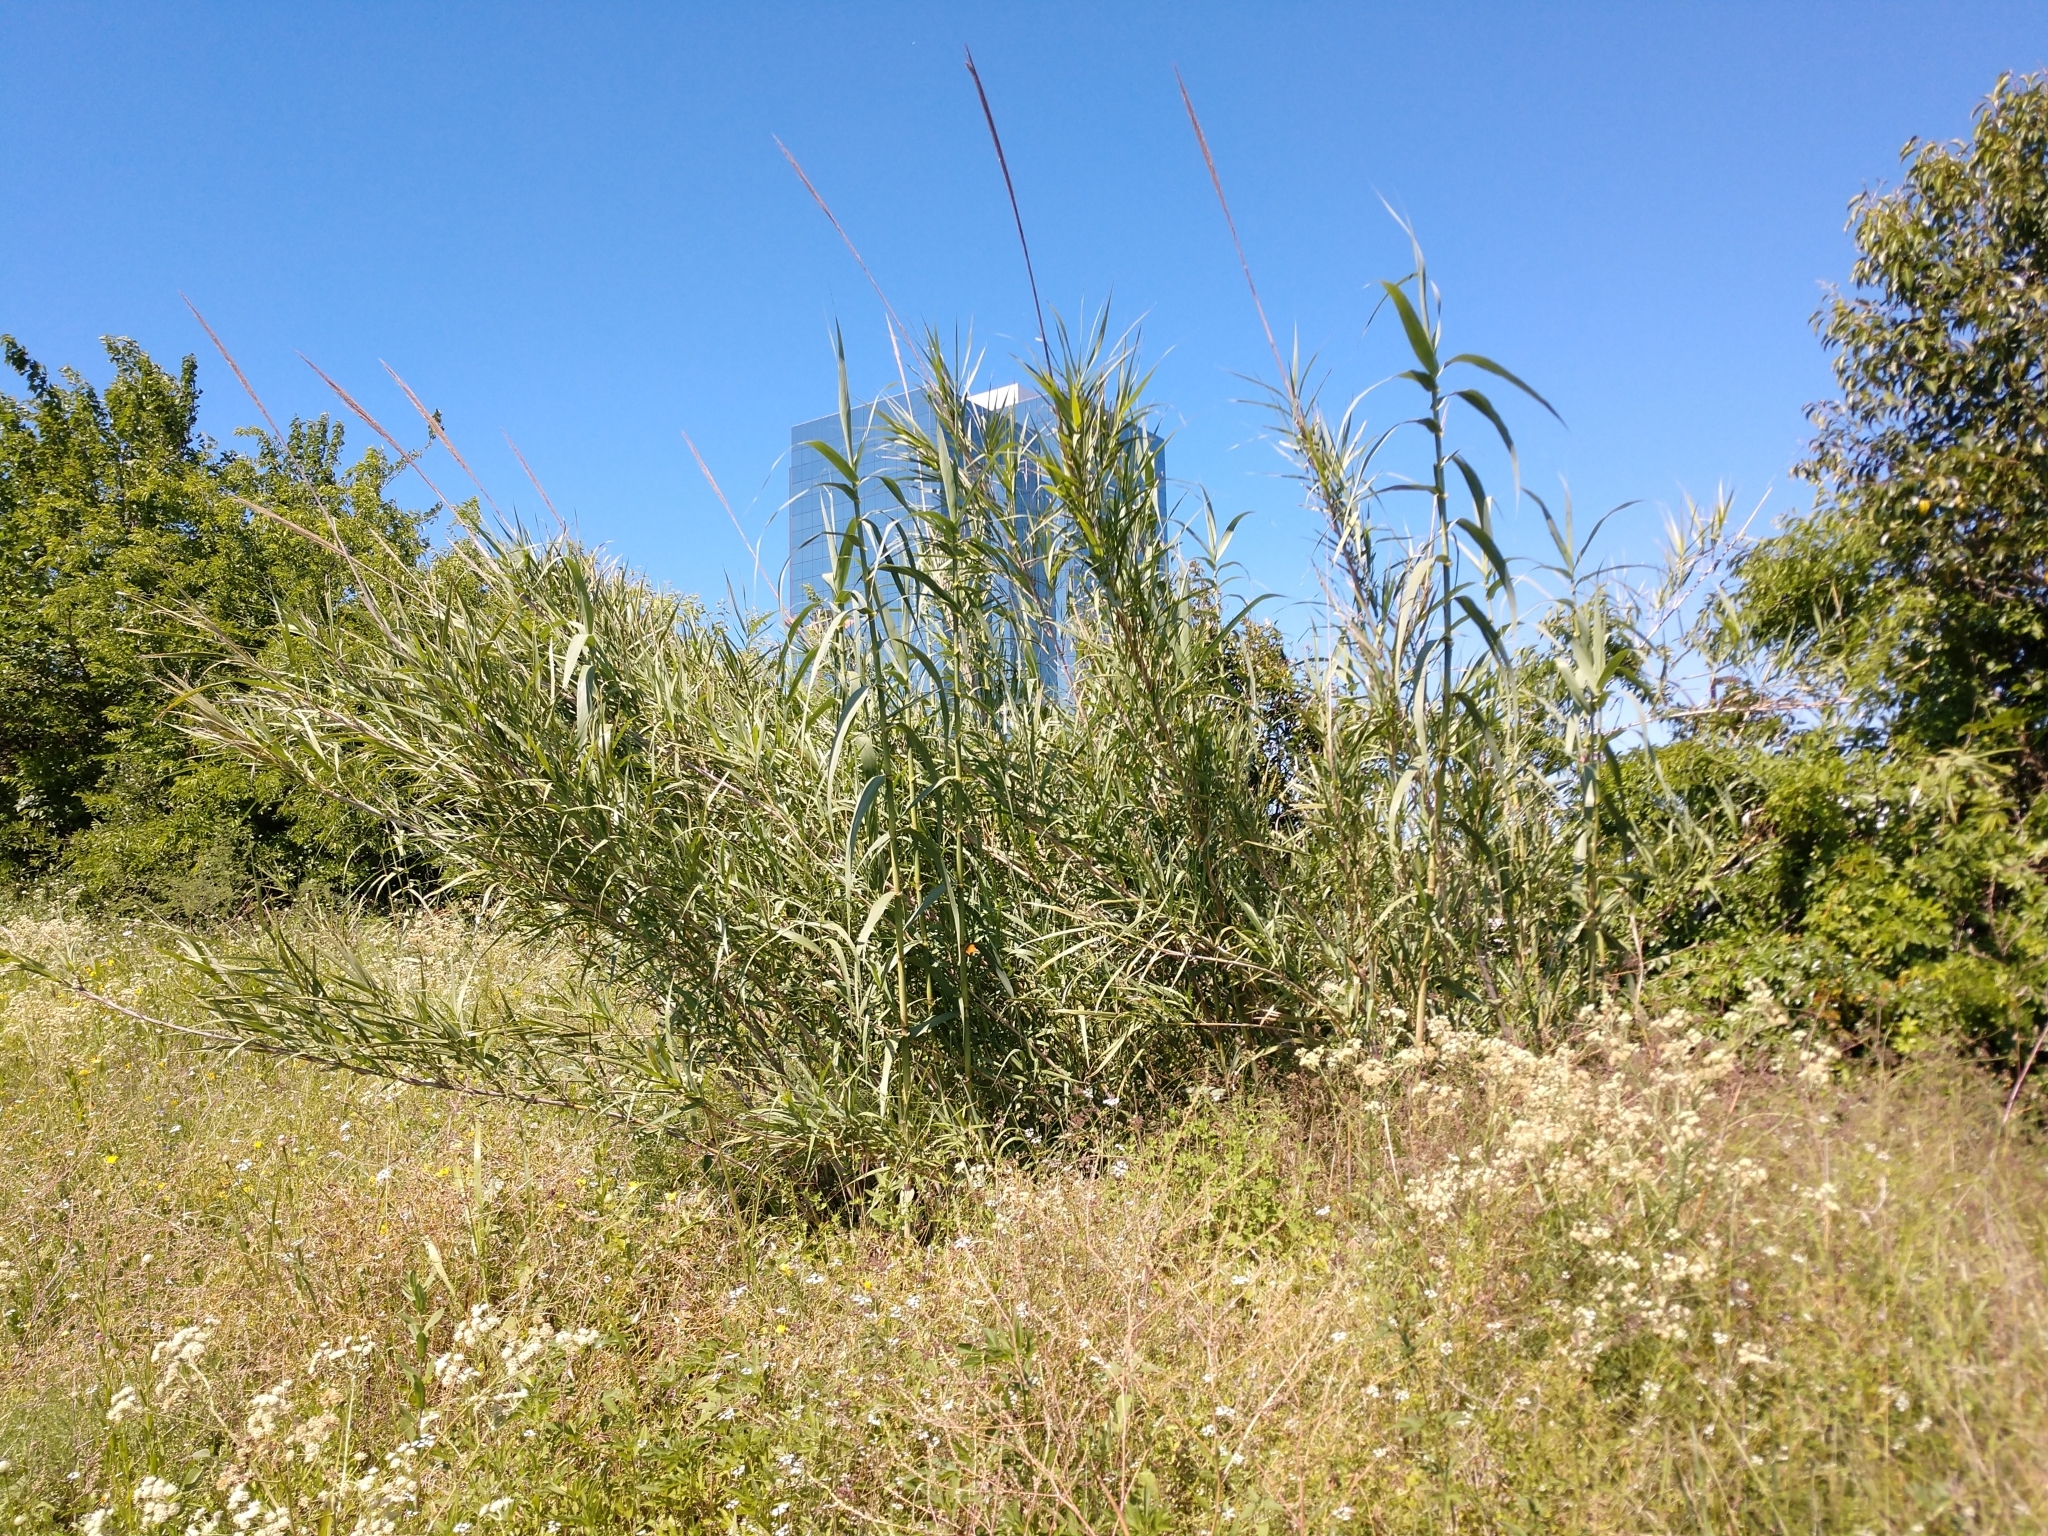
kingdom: Plantae
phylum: Tracheophyta
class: Liliopsida
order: Poales
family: Poaceae
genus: Arundo
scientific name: Arundo donax
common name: Giant reed
